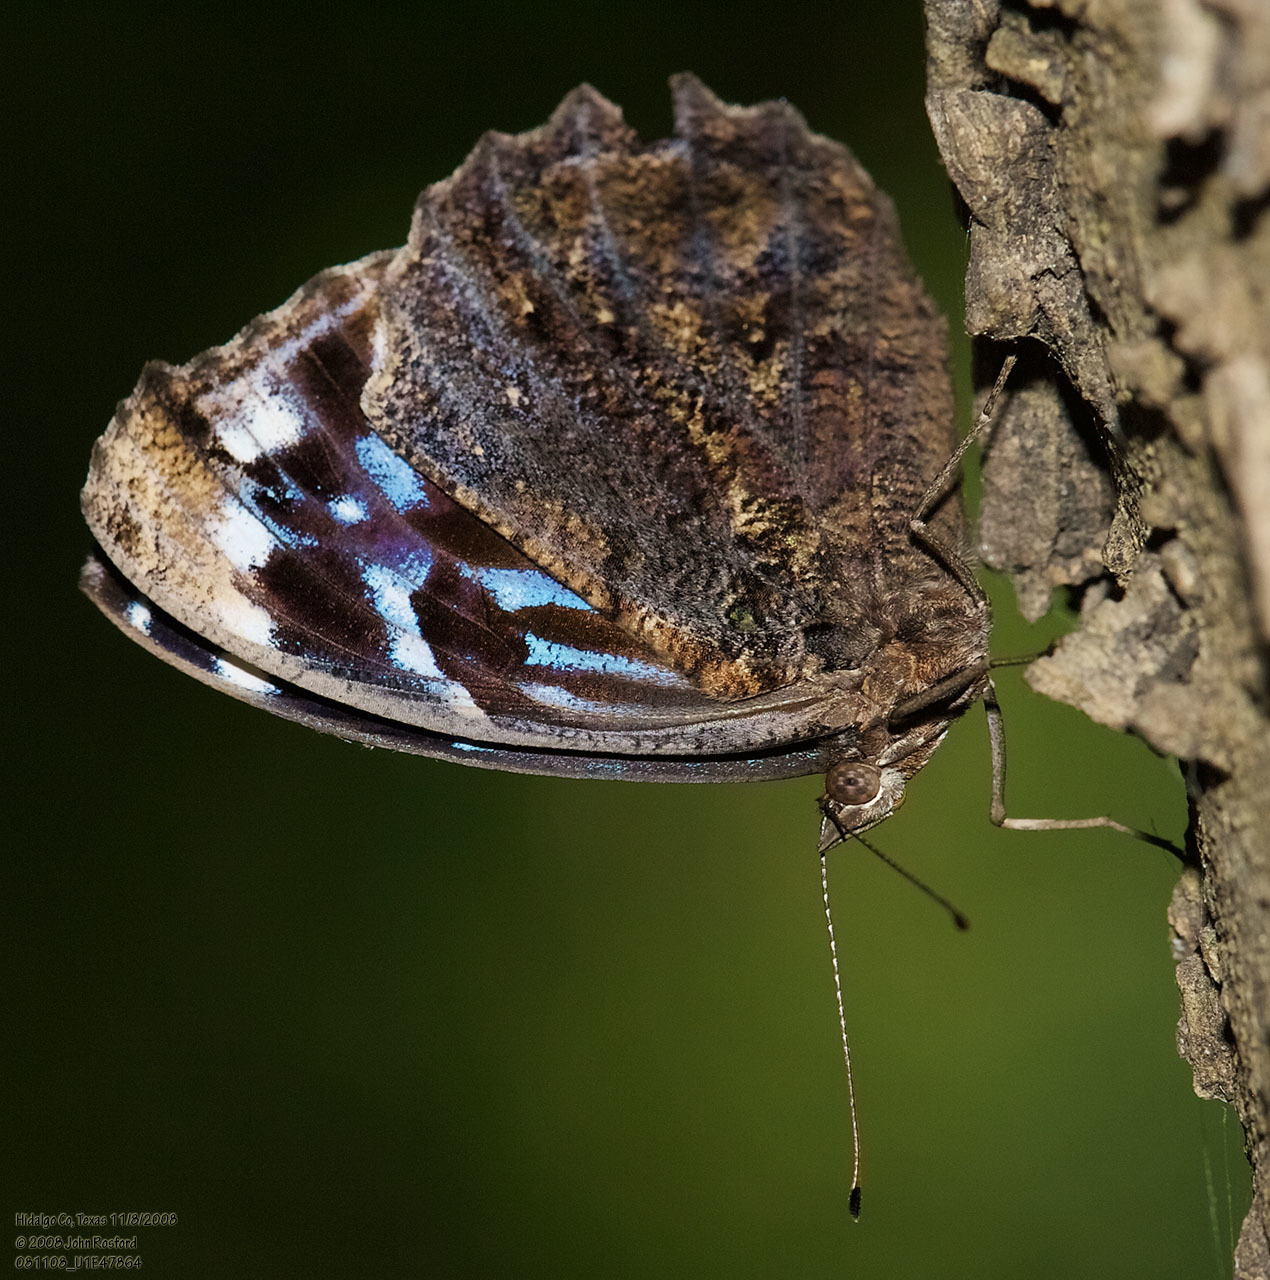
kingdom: Animalia
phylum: Arthropoda
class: Insecta
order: Lepidoptera
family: Nymphalidae
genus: Myscelia
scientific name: Myscelia ethusa
